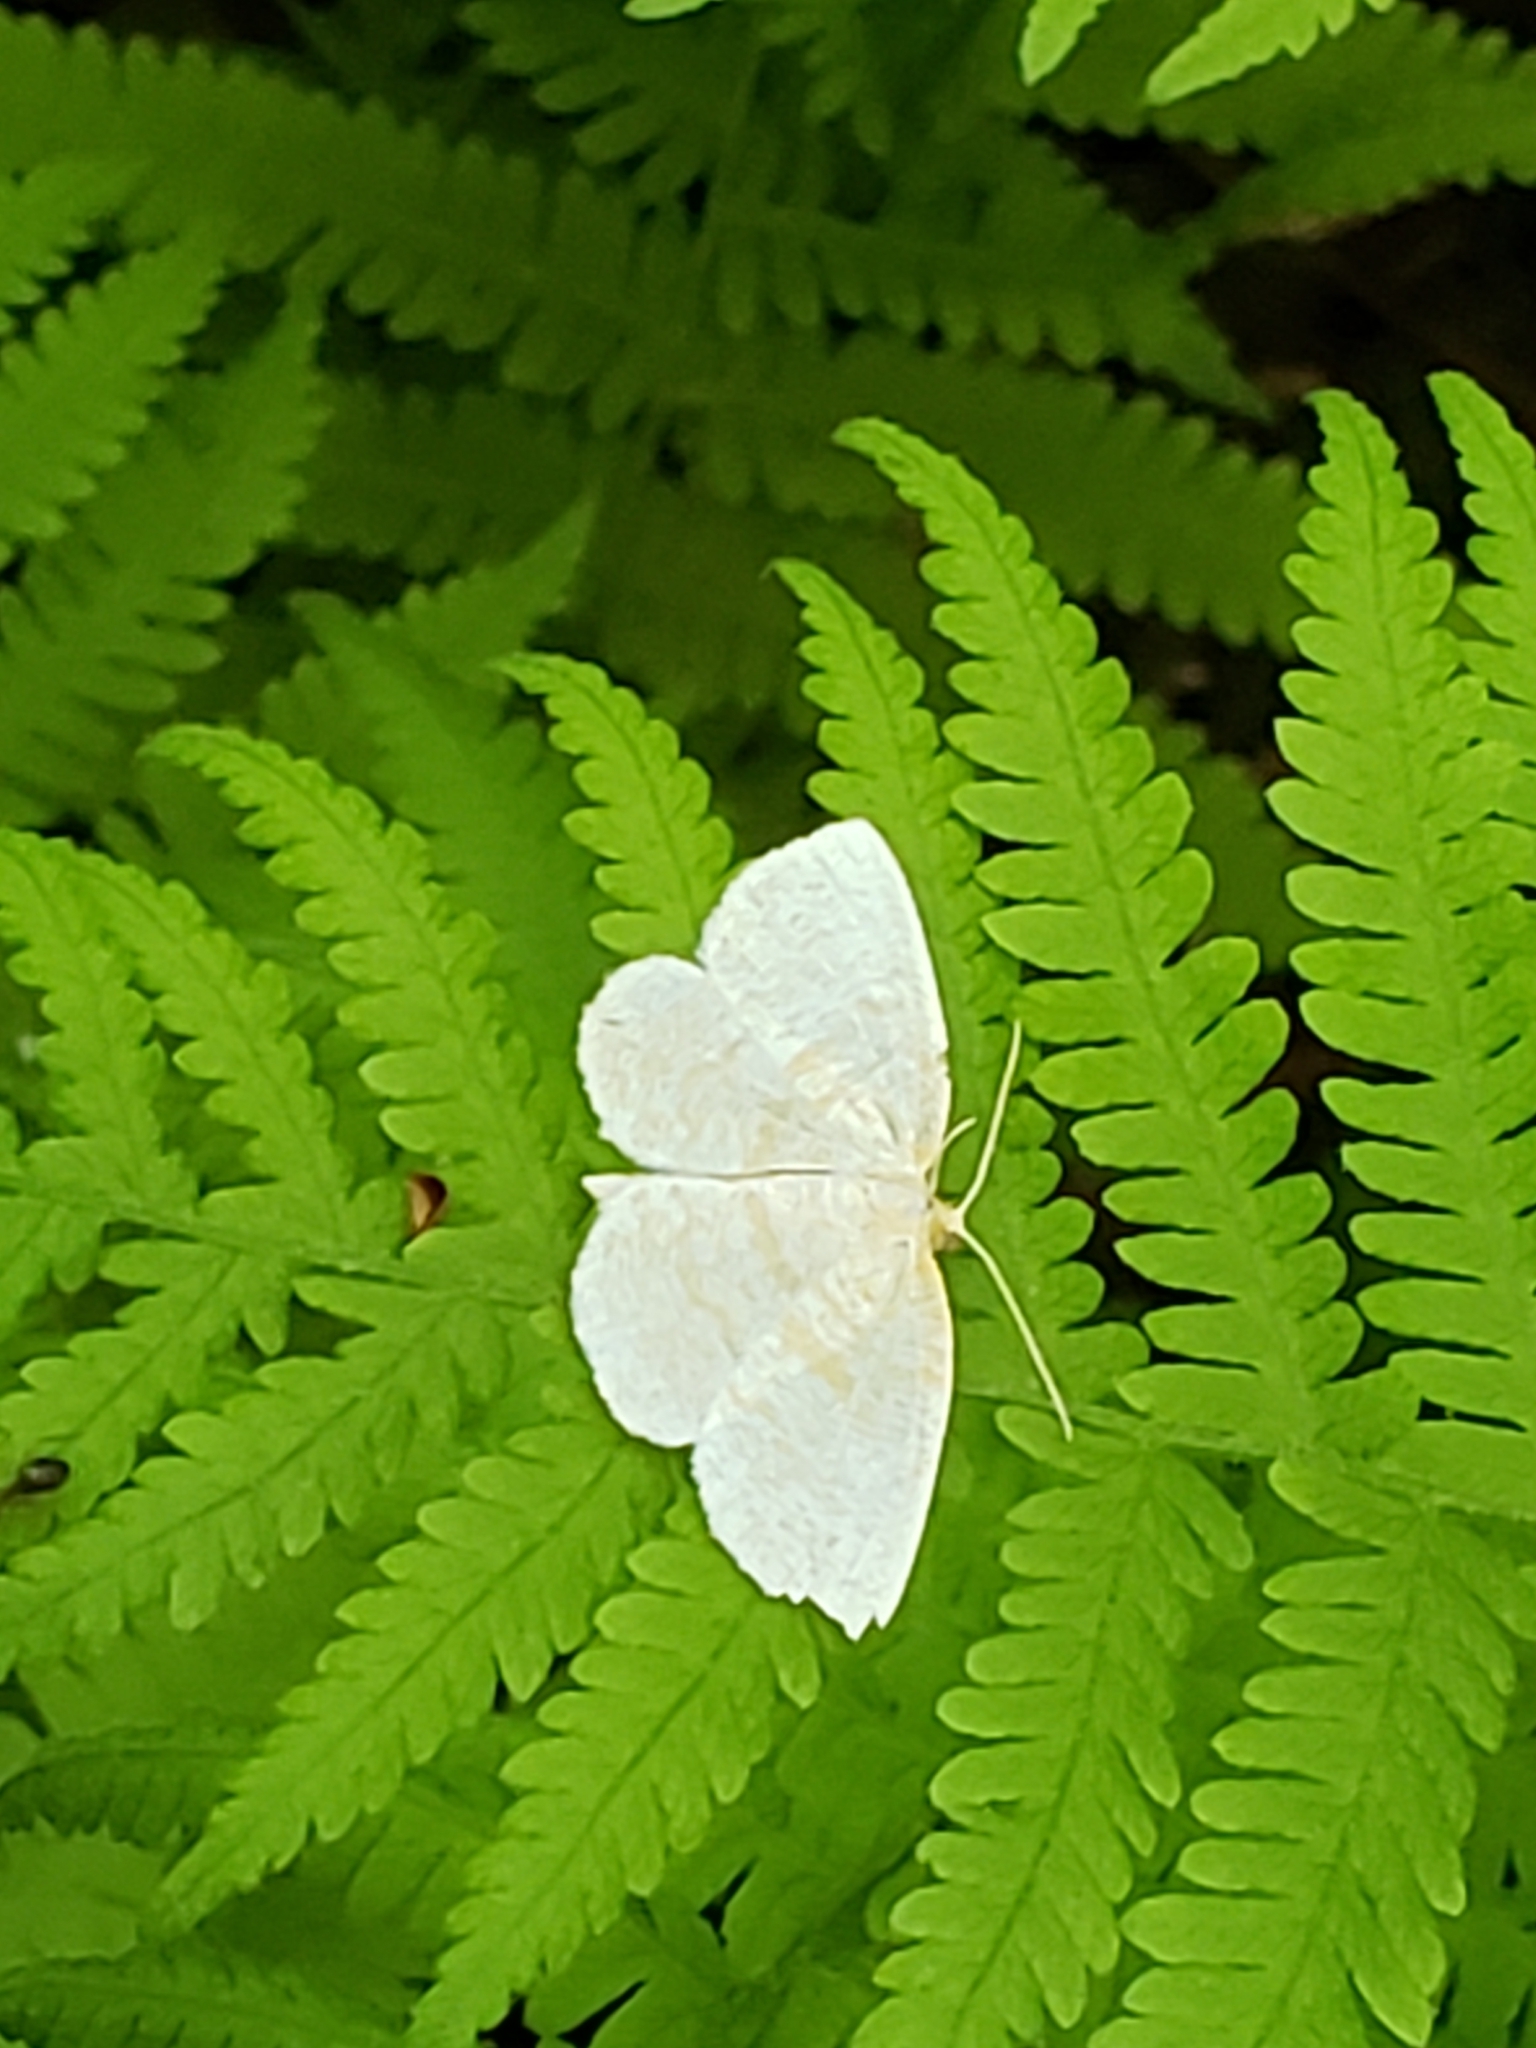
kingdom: Animalia
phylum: Arthropoda
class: Insecta
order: Lepidoptera
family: Geometridae
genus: Cabera
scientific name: Cabera erythemaria
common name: Yellow-dusted cream moth
